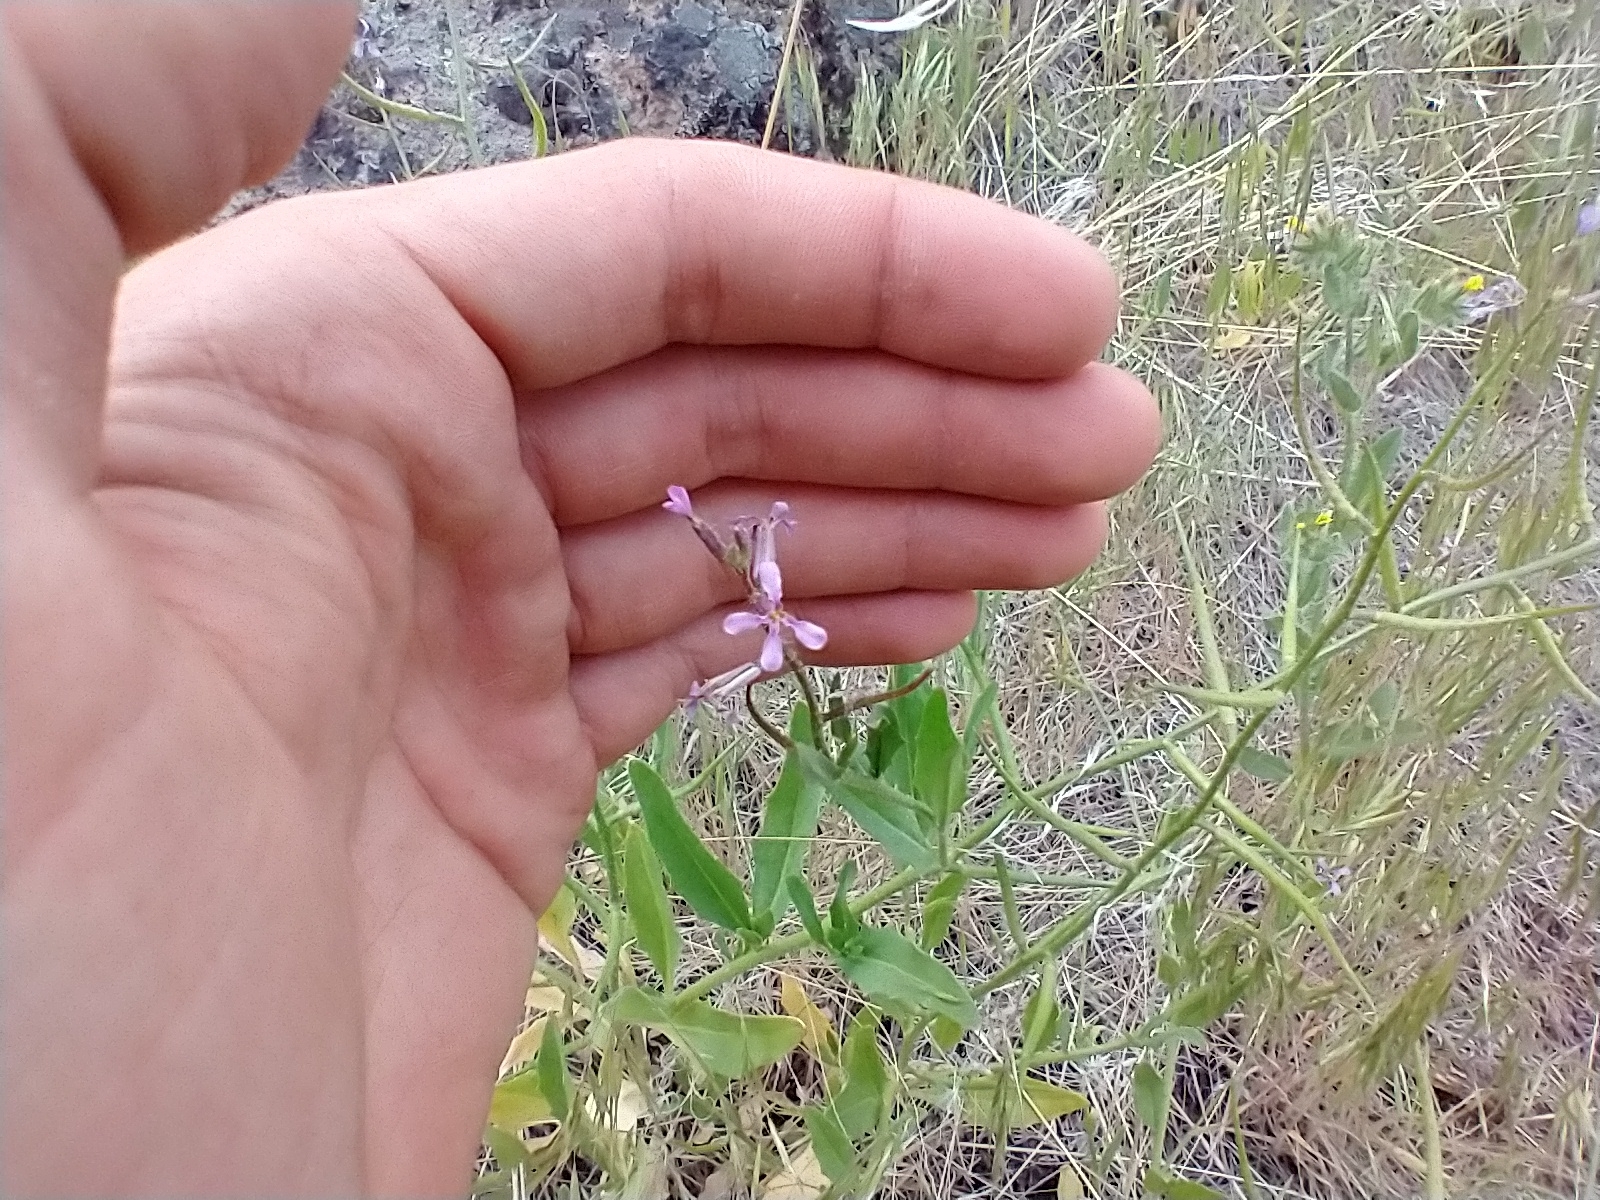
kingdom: Plantae
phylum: Tracheophyta
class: Magnoliopsida
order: Brassicales
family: Brassicaceae
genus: Chorispora
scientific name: Chorispora tenella
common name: Crossflower
